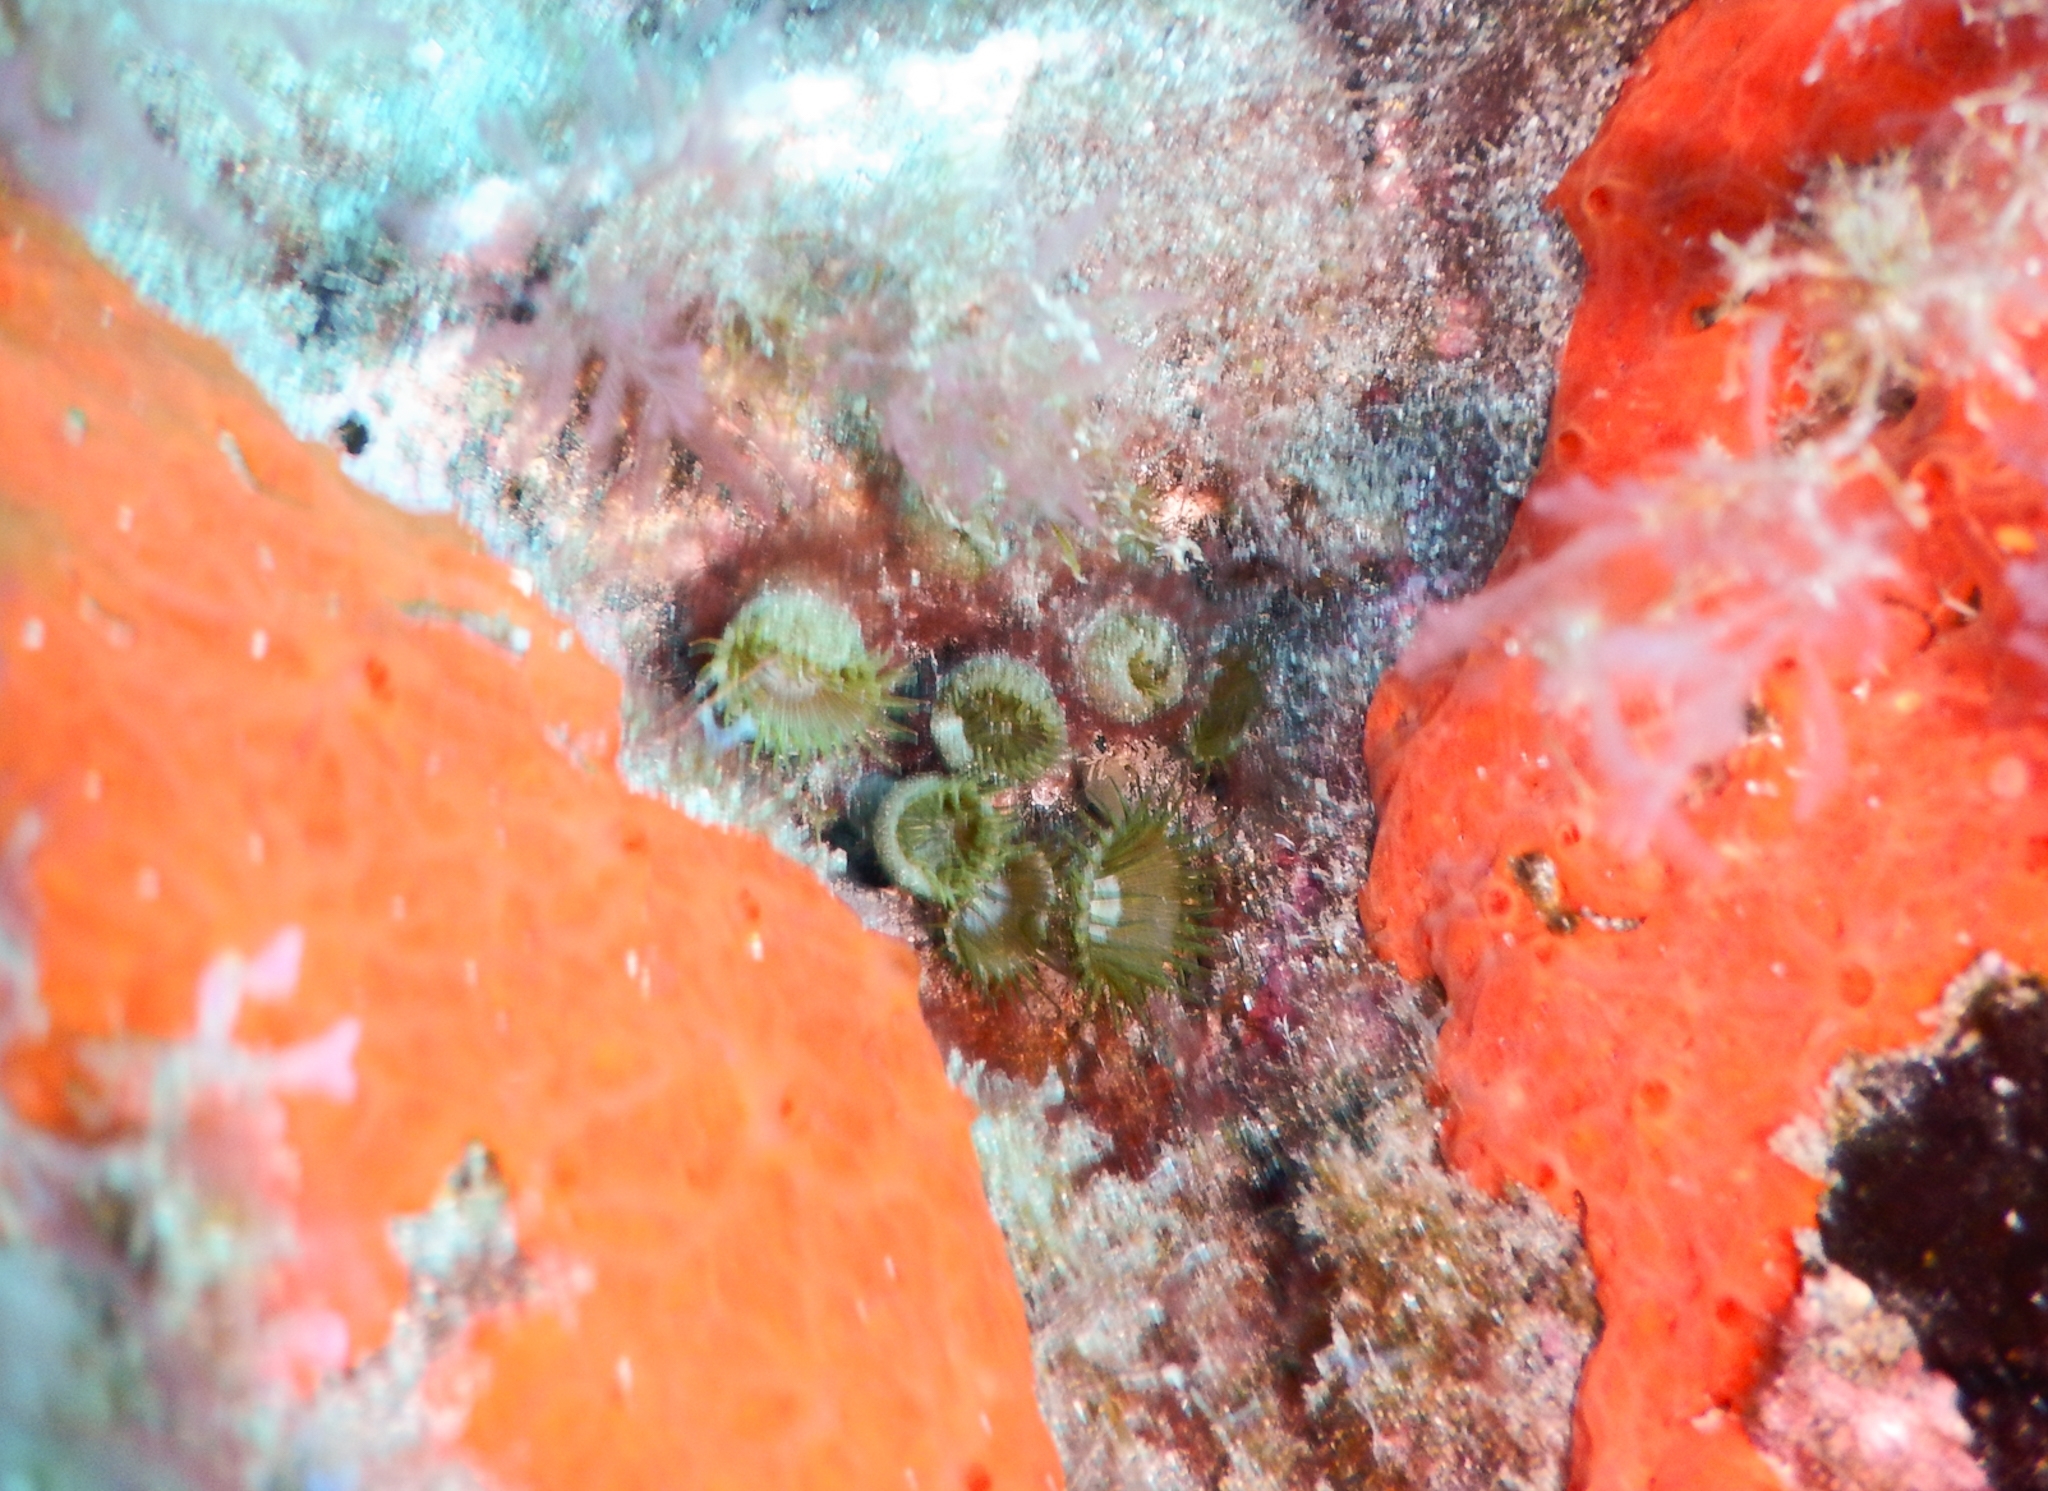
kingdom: Animalia
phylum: Cnidaria
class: Anthozoa
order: Zoantharia
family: Sphenopidae
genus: Palythoa
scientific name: Palythoa grandiflora
